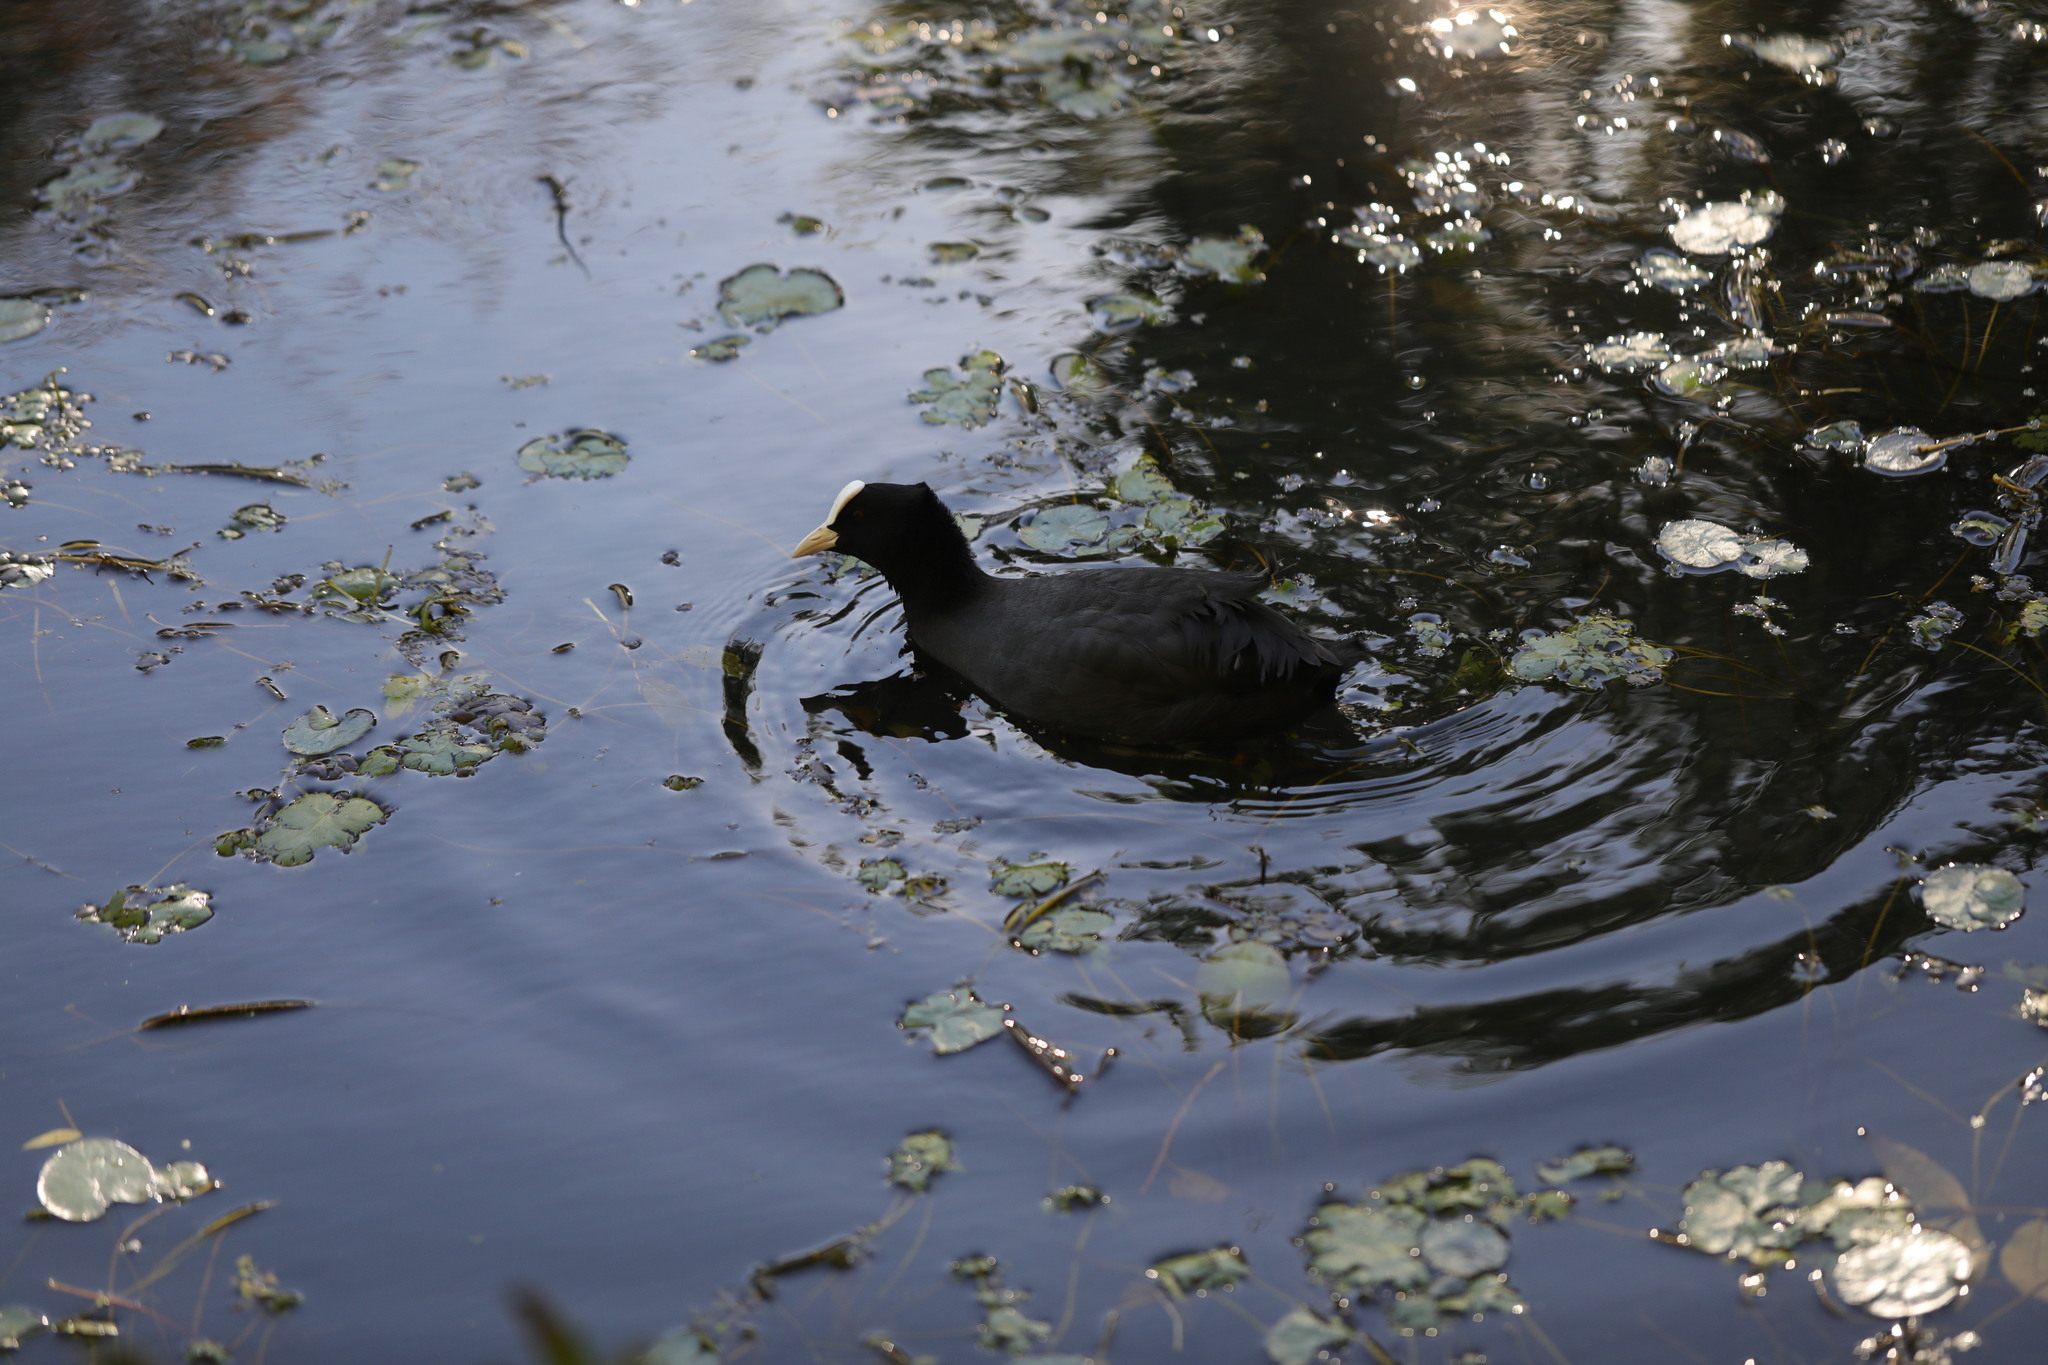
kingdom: Animalia
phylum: Chordata
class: Aves
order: Gruiformes
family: Rallidae
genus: Fulica
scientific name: Fulica atra
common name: Eurasian coot
